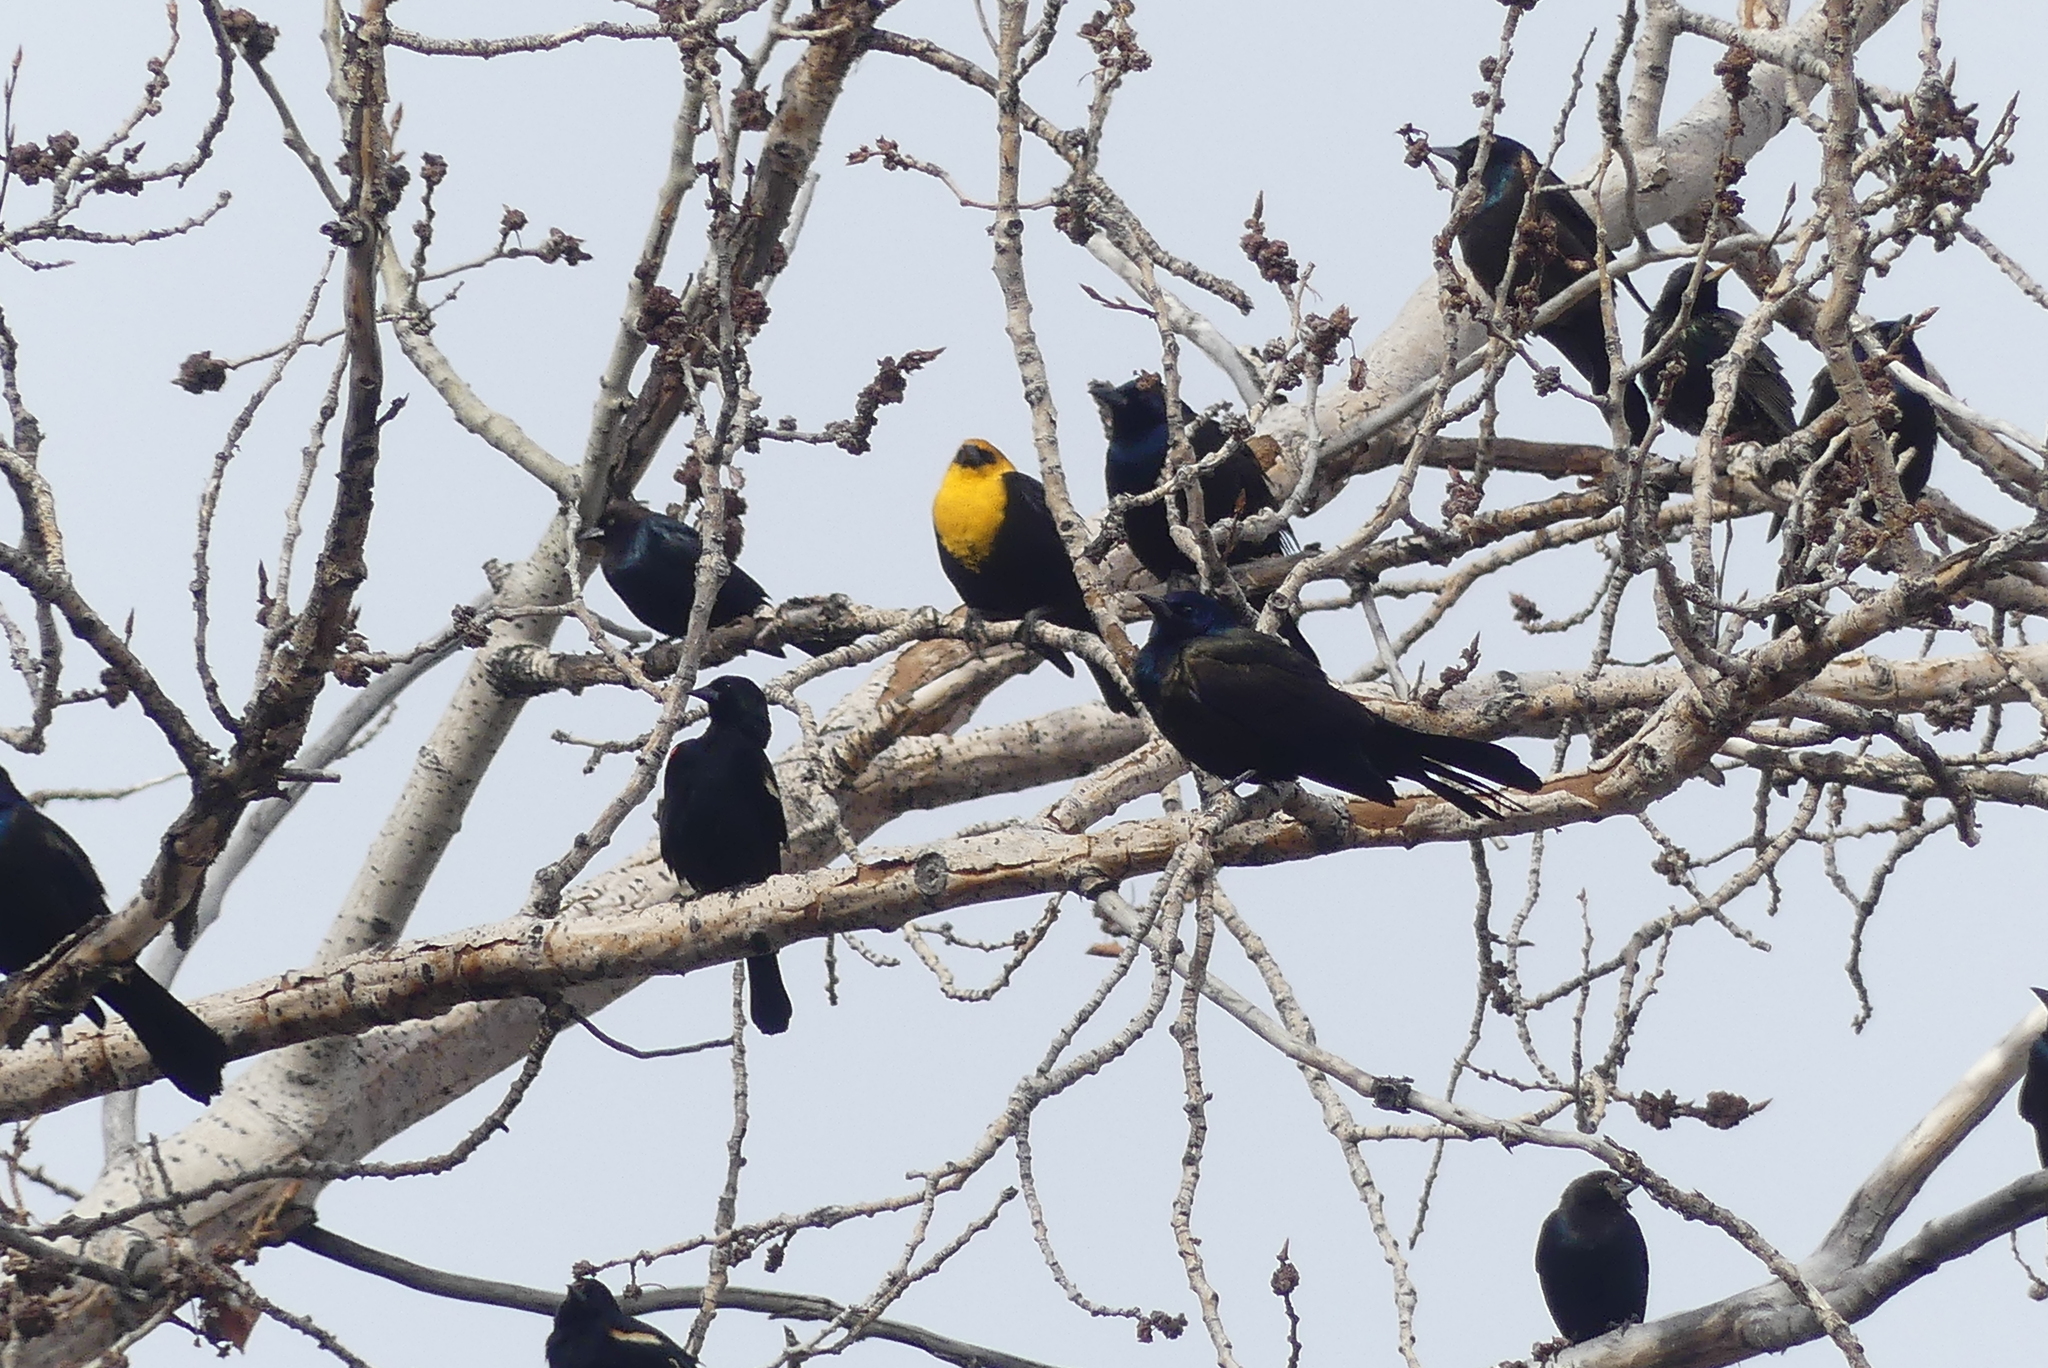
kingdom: Animalia
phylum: Chordata
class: Aves
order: Passeriformes
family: Icteridae
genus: Quiscalus
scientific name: Quiscalus quiscula
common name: Common grackle
